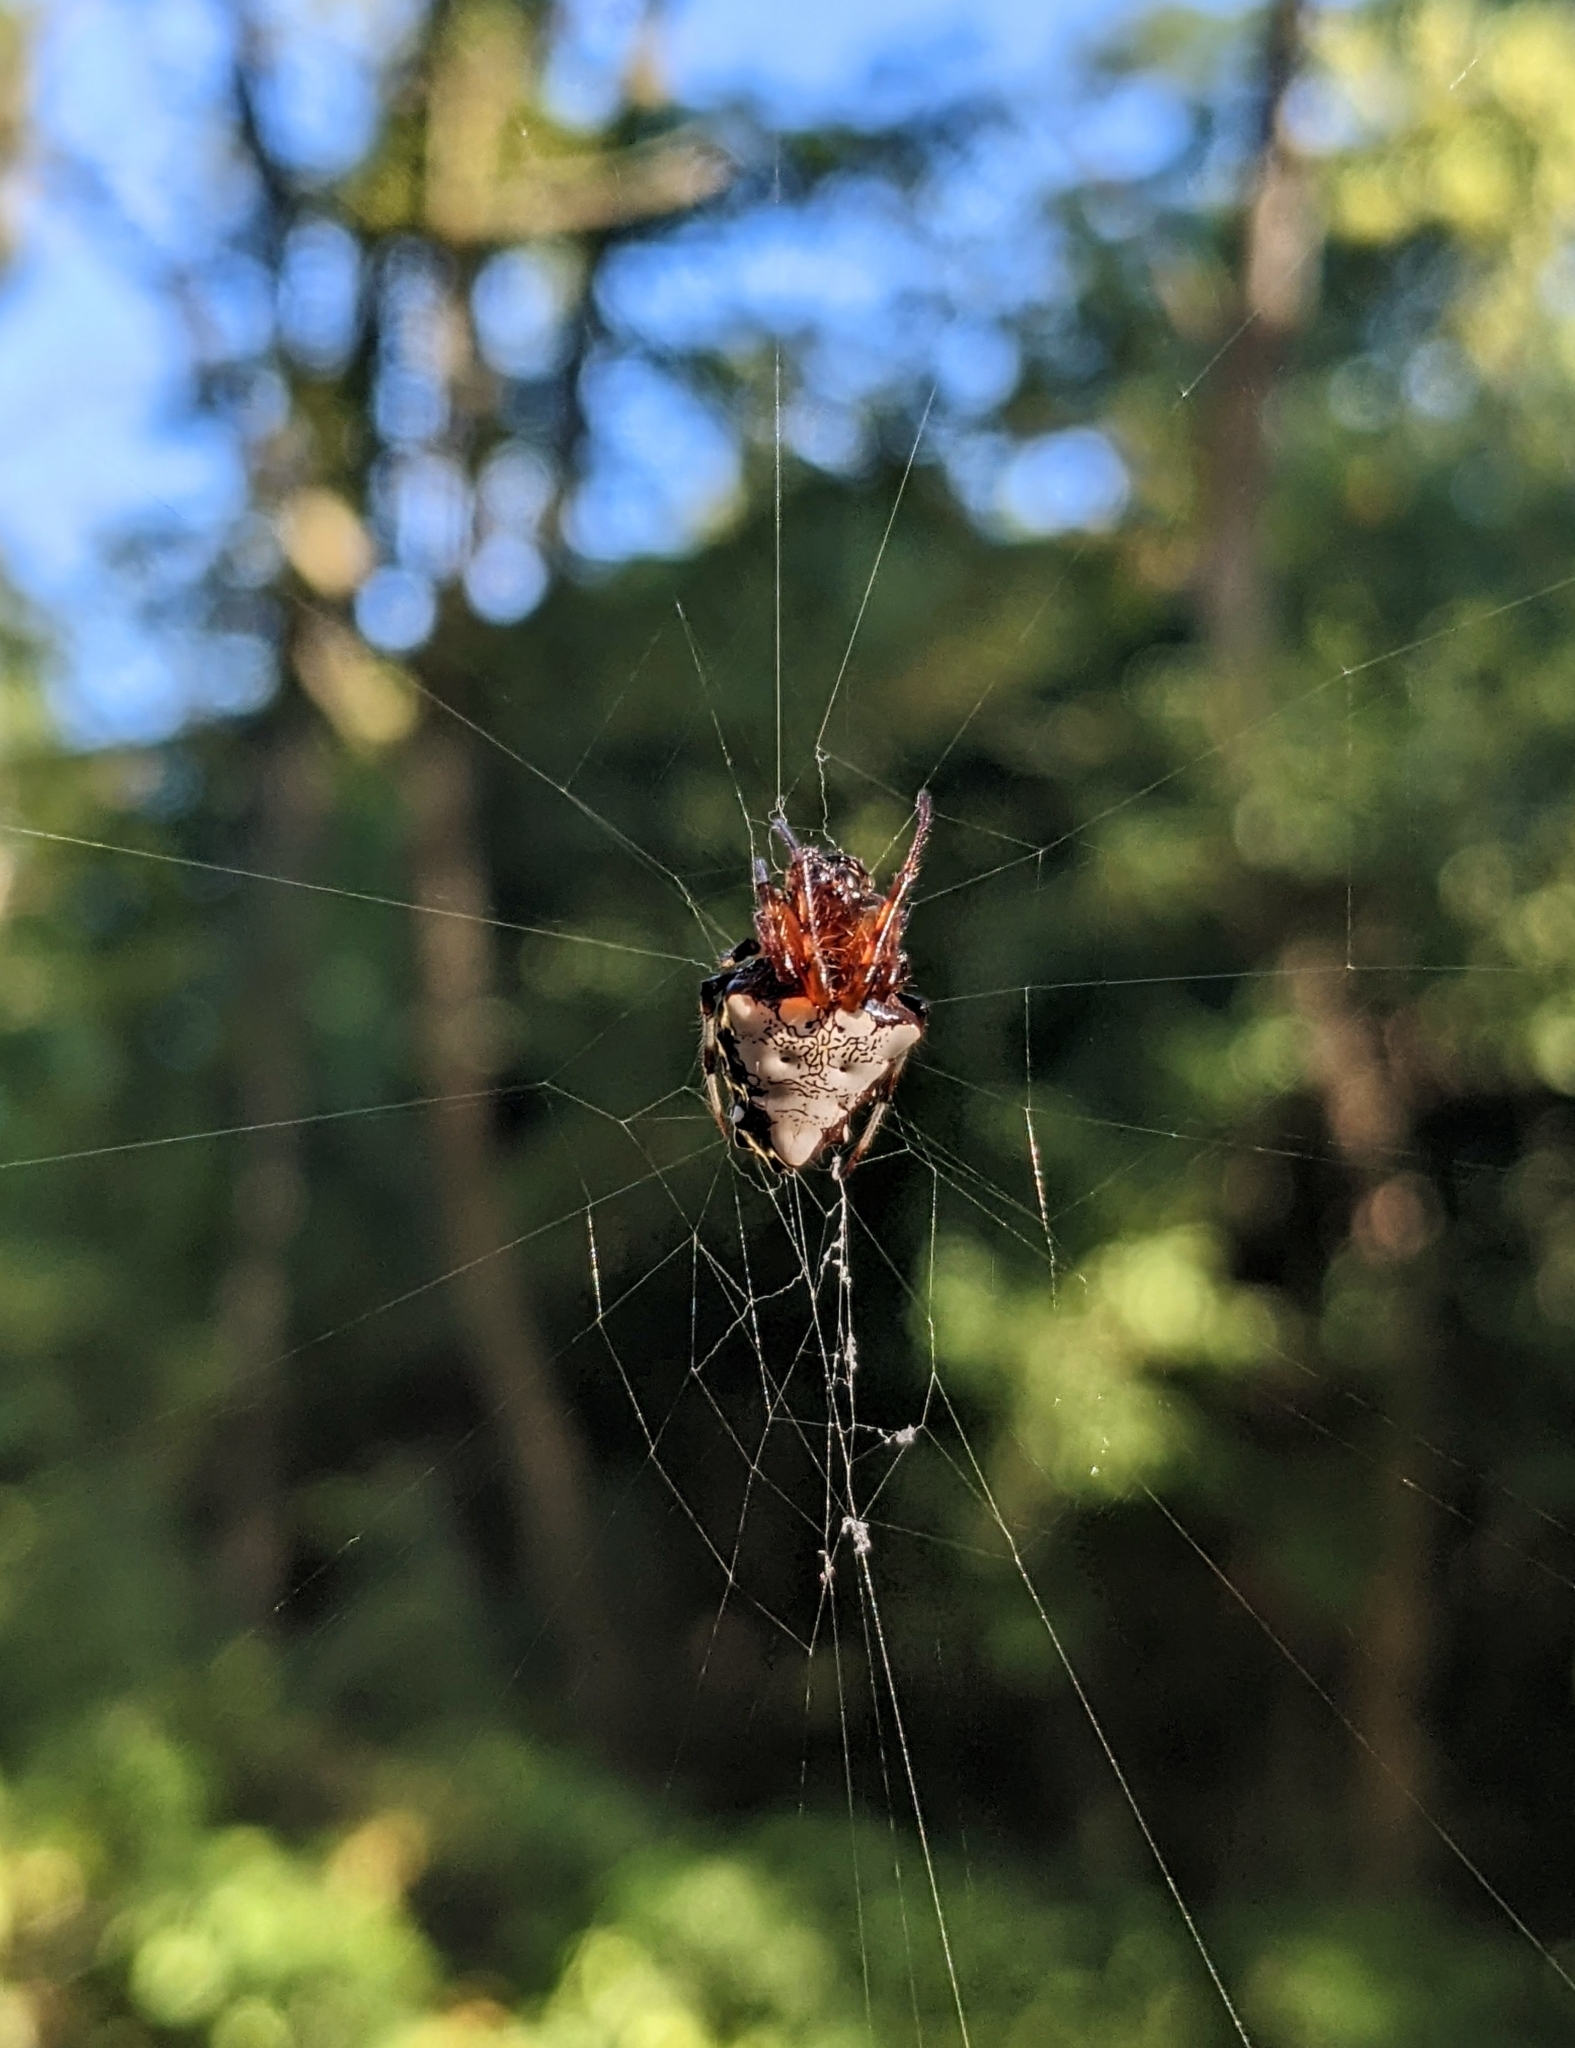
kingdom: Animalia
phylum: Arthropoda
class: Arachnida
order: Araneae
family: Araneidae
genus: Verrucosa
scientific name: Verrucosa arenata
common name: Orb weavers
